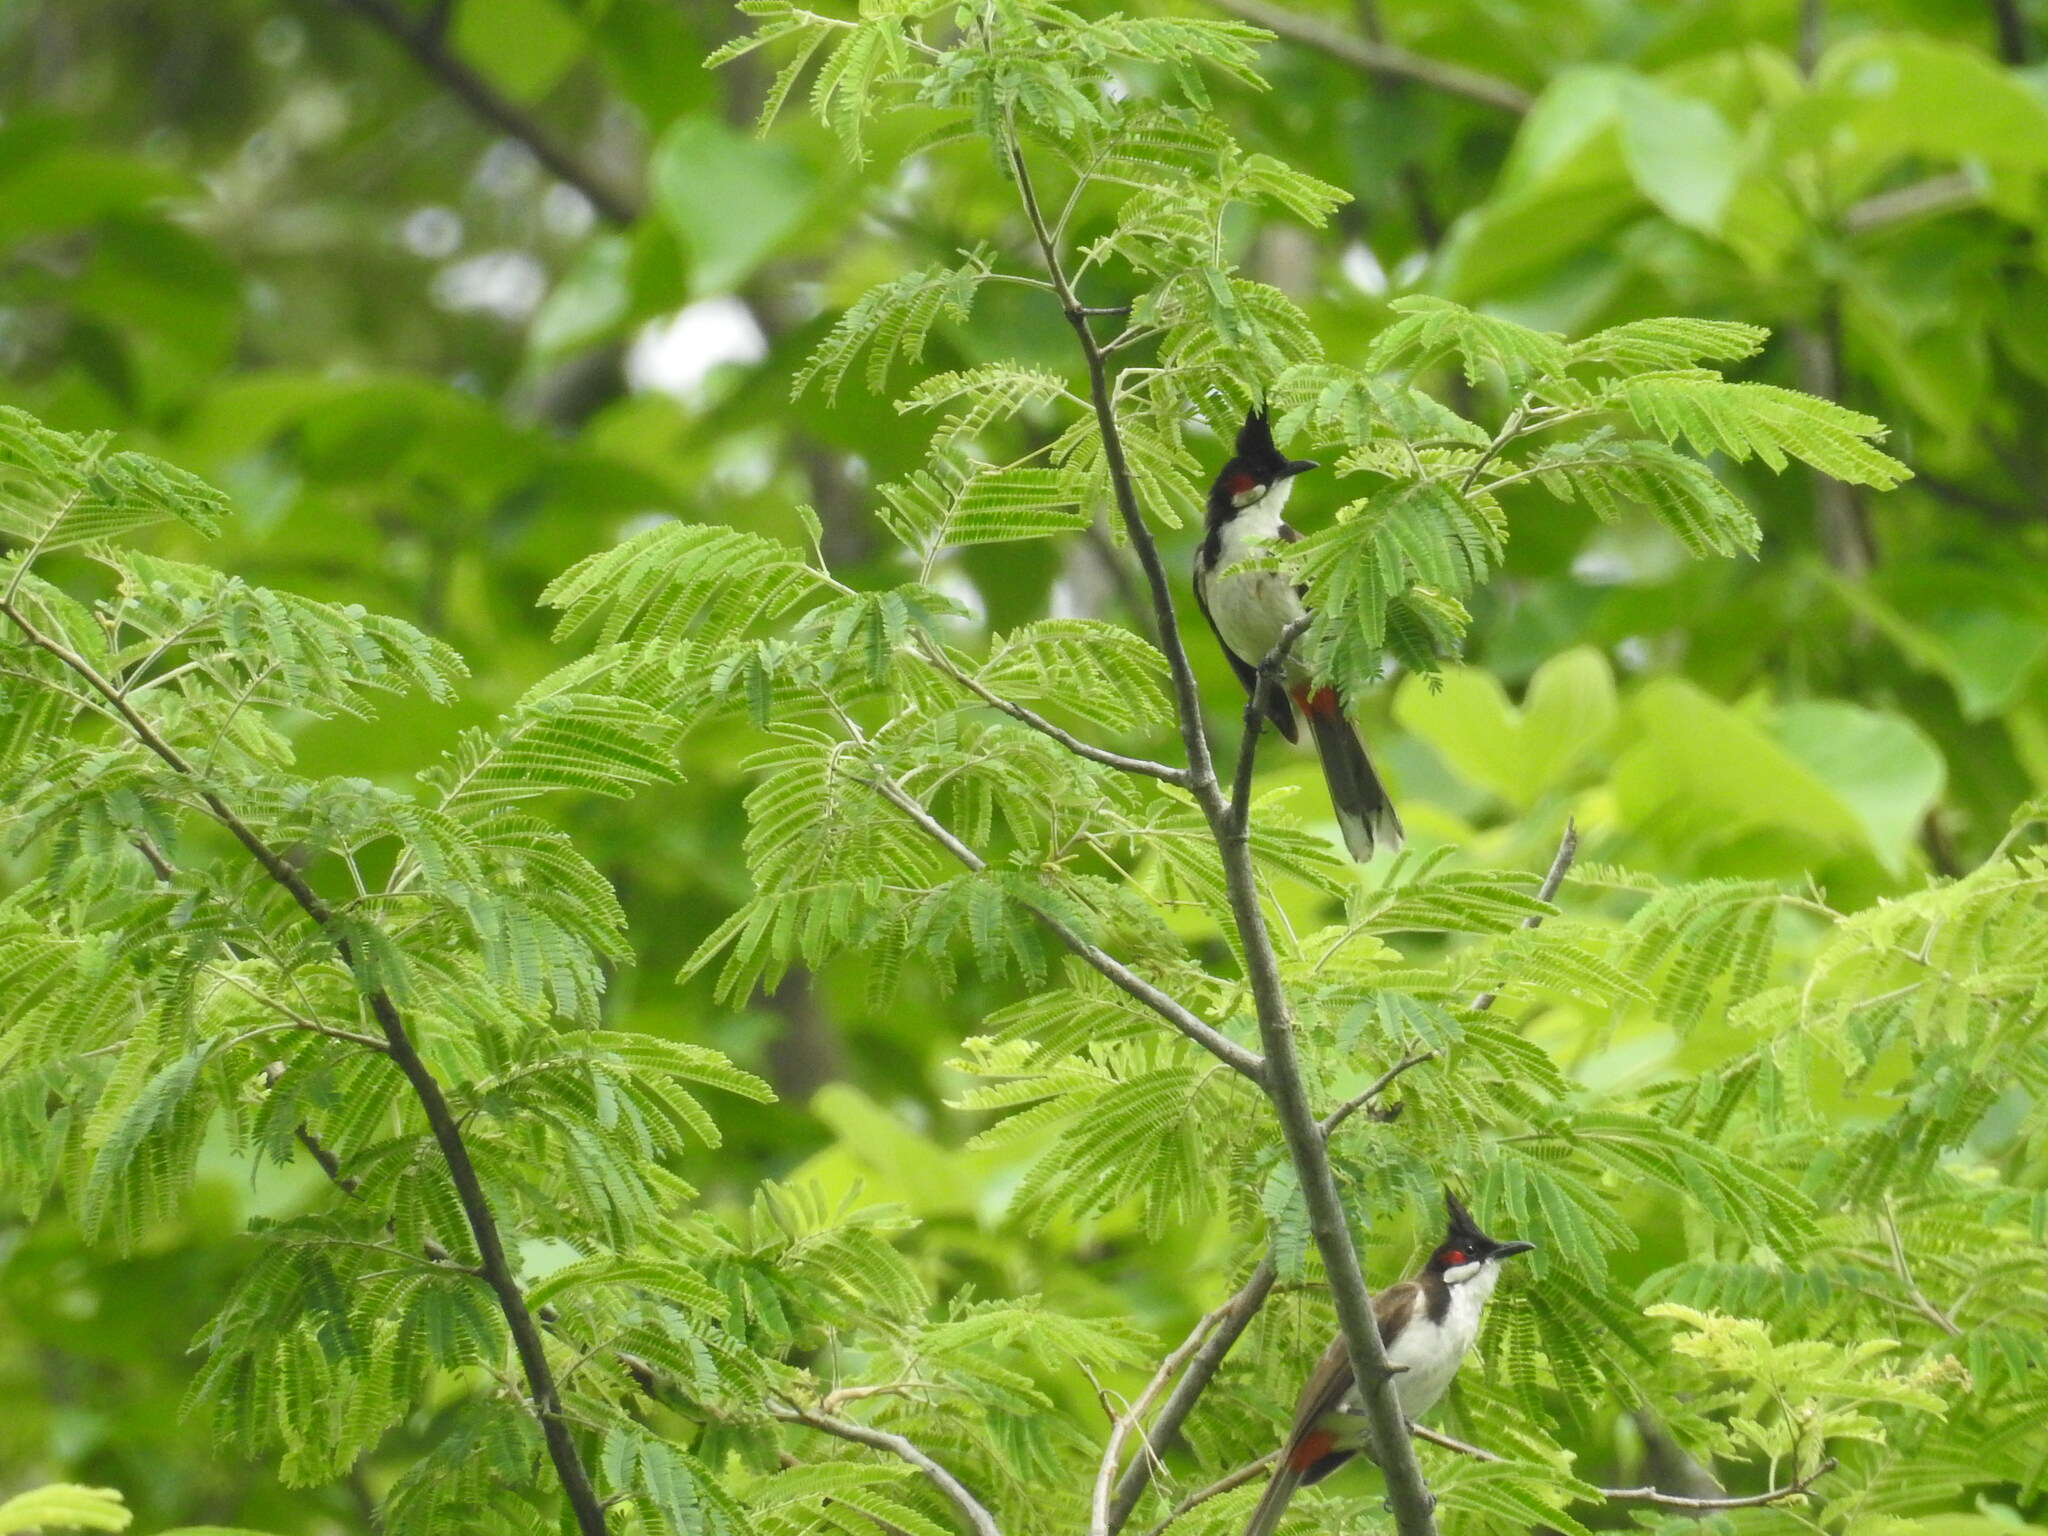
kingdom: Animalia
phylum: Chordata
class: Aves
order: Passeriformes
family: Pycnonotidae
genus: Pycnonotus
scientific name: Pycnonotus jocosus
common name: Red-whiskered bulbul
